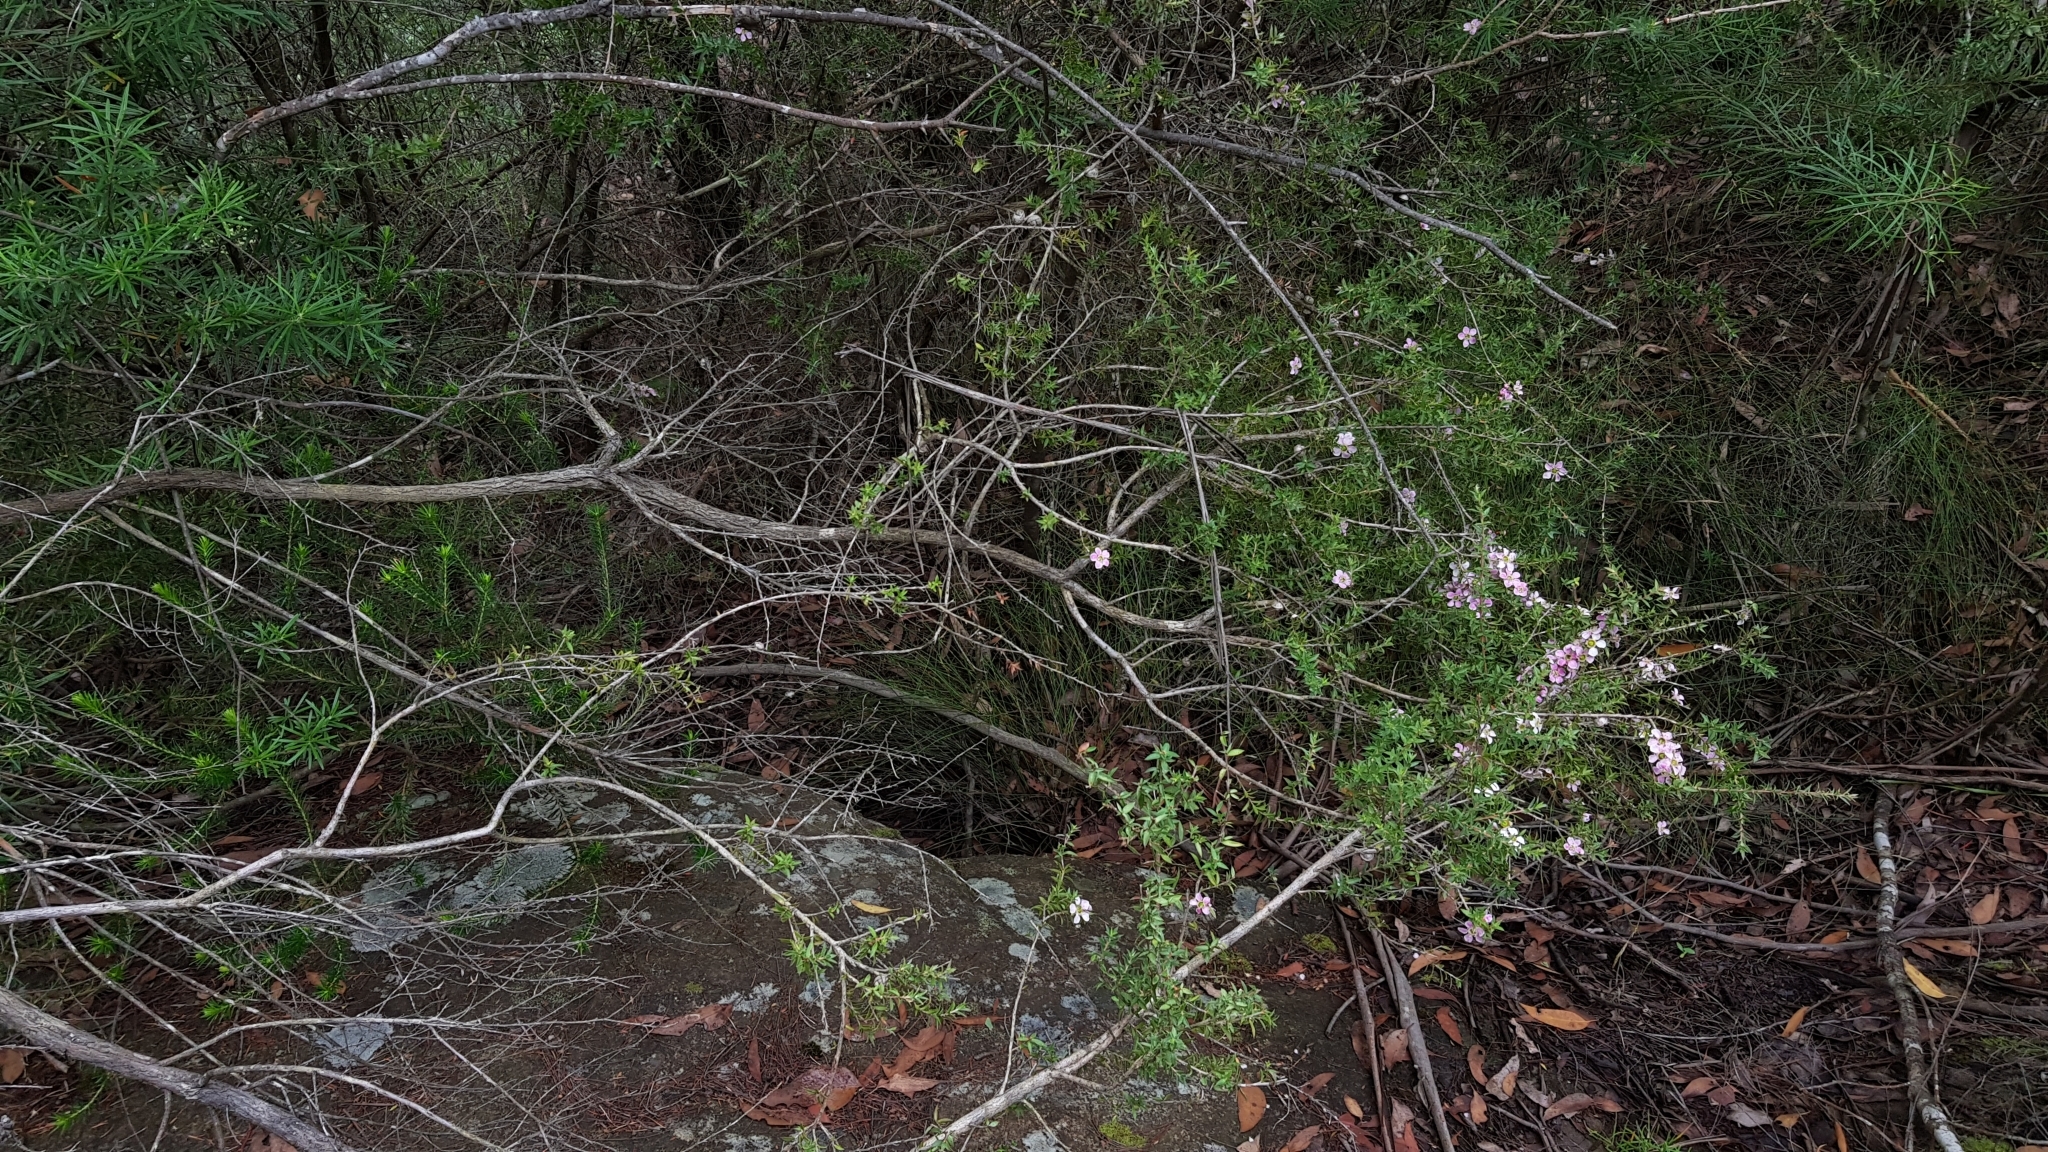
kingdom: Plantae
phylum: Tracheophyta
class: Magnoliopsida
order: Myrtales
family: Myrtaceae
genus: Leptospermum
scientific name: Leptospermum squarrosum
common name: Peach-blossom teatree
